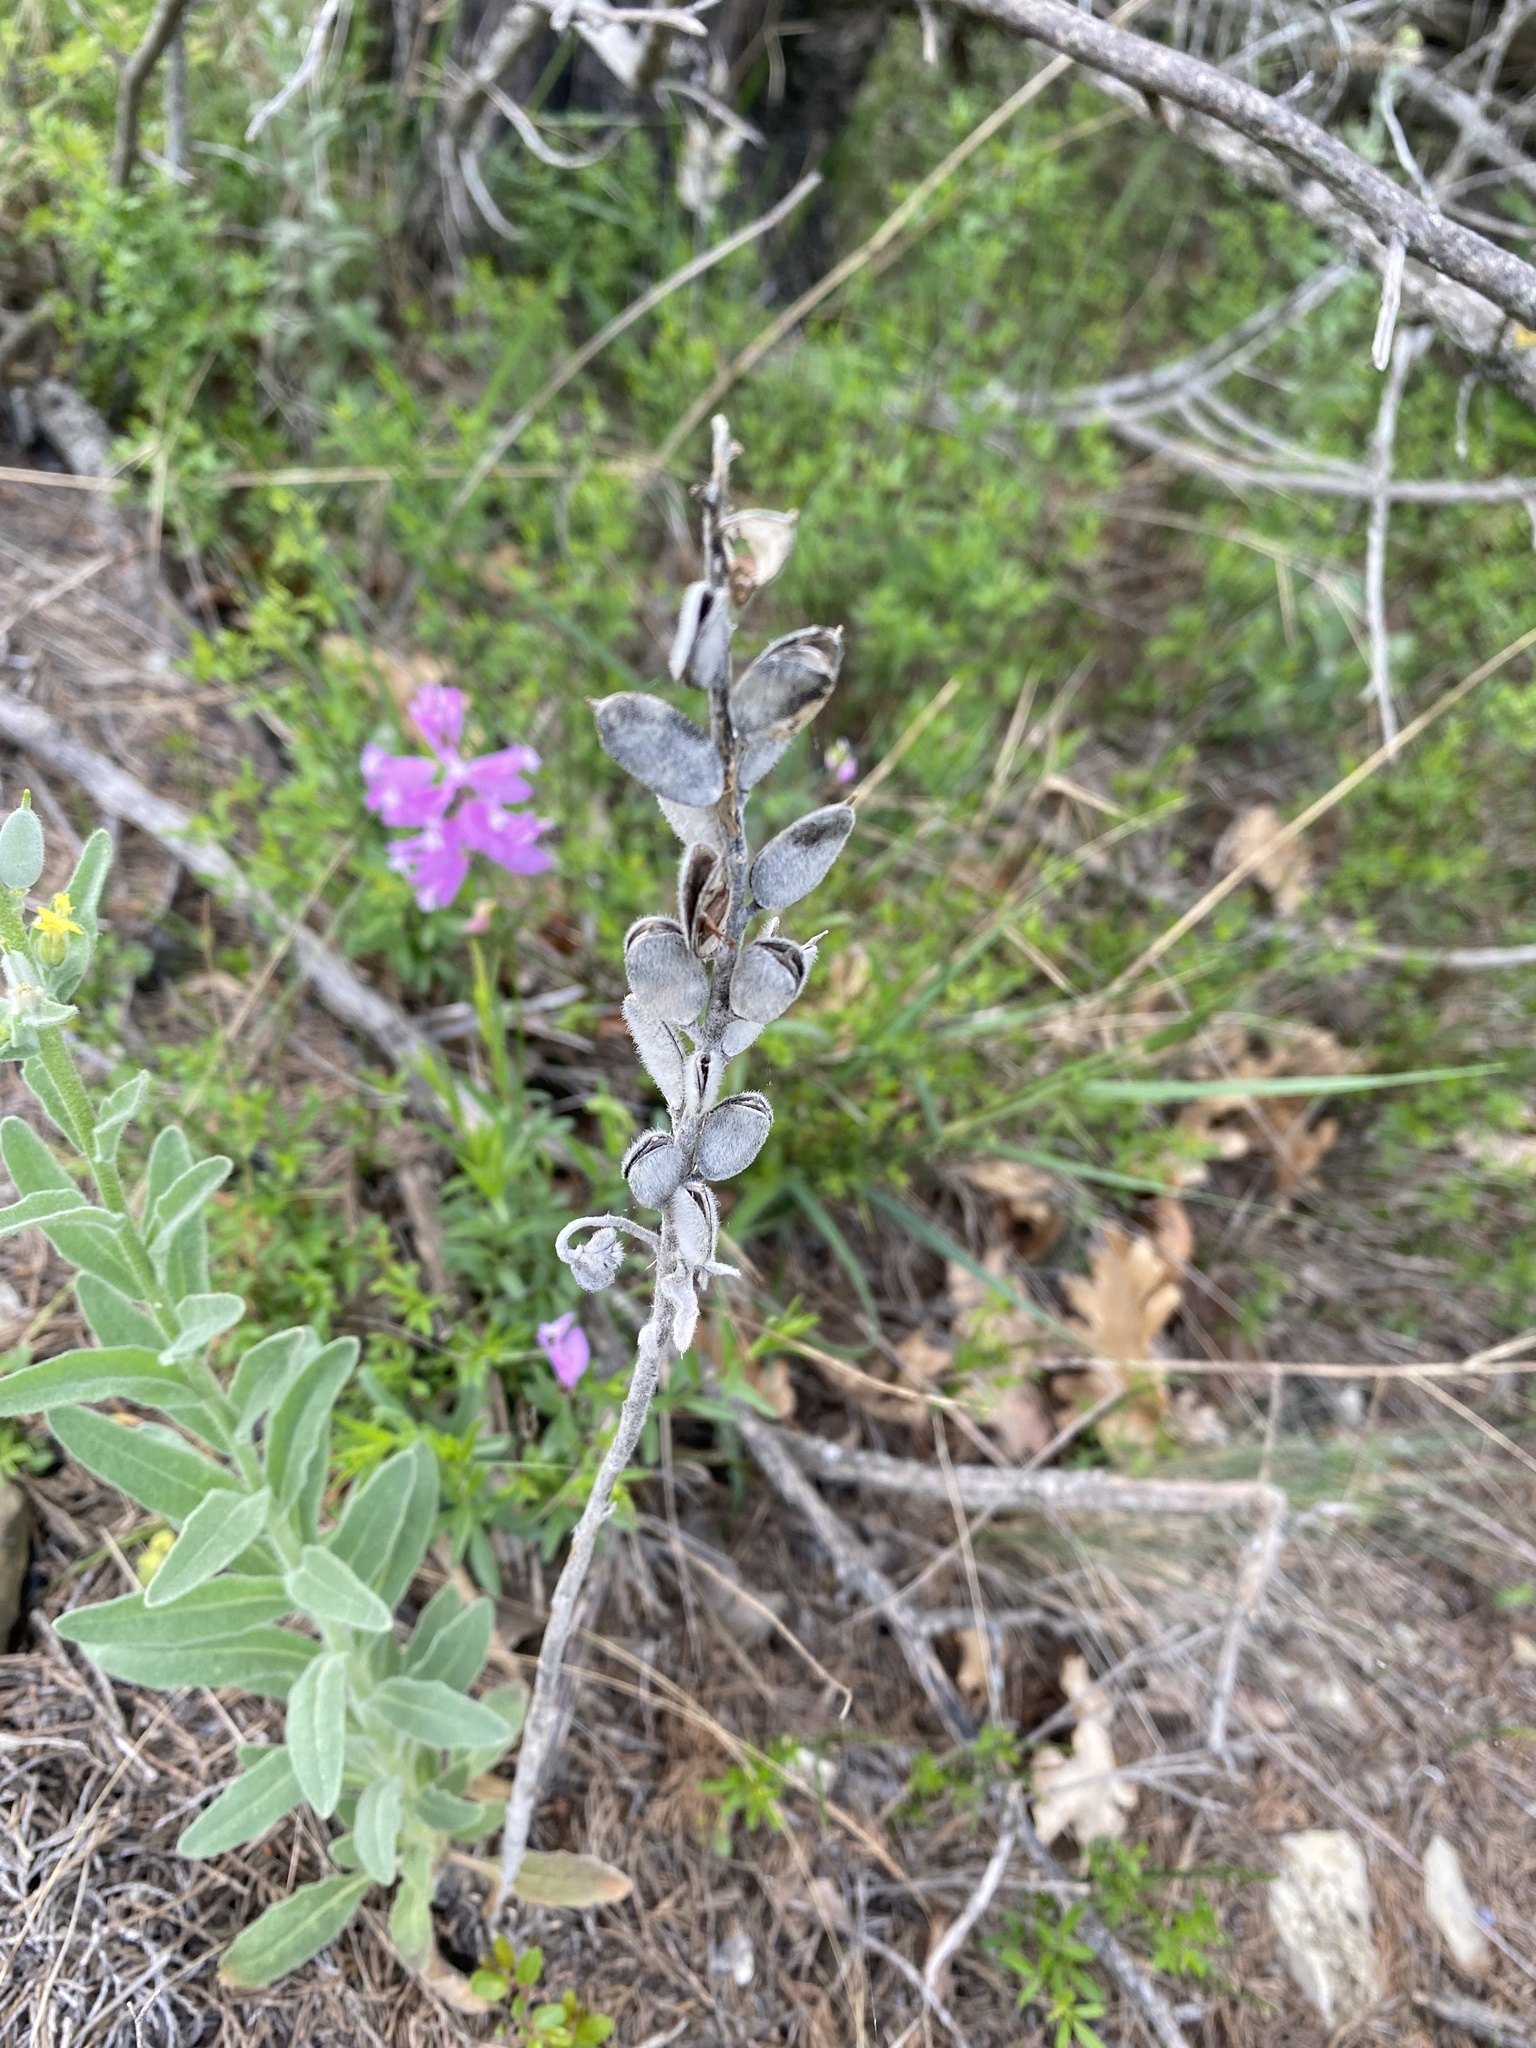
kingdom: Plantae
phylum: Tracheophyta
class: Magnoliopsida
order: Brassicales
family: Brassicaceae
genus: Fibigia
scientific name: Fibigia clypeata
